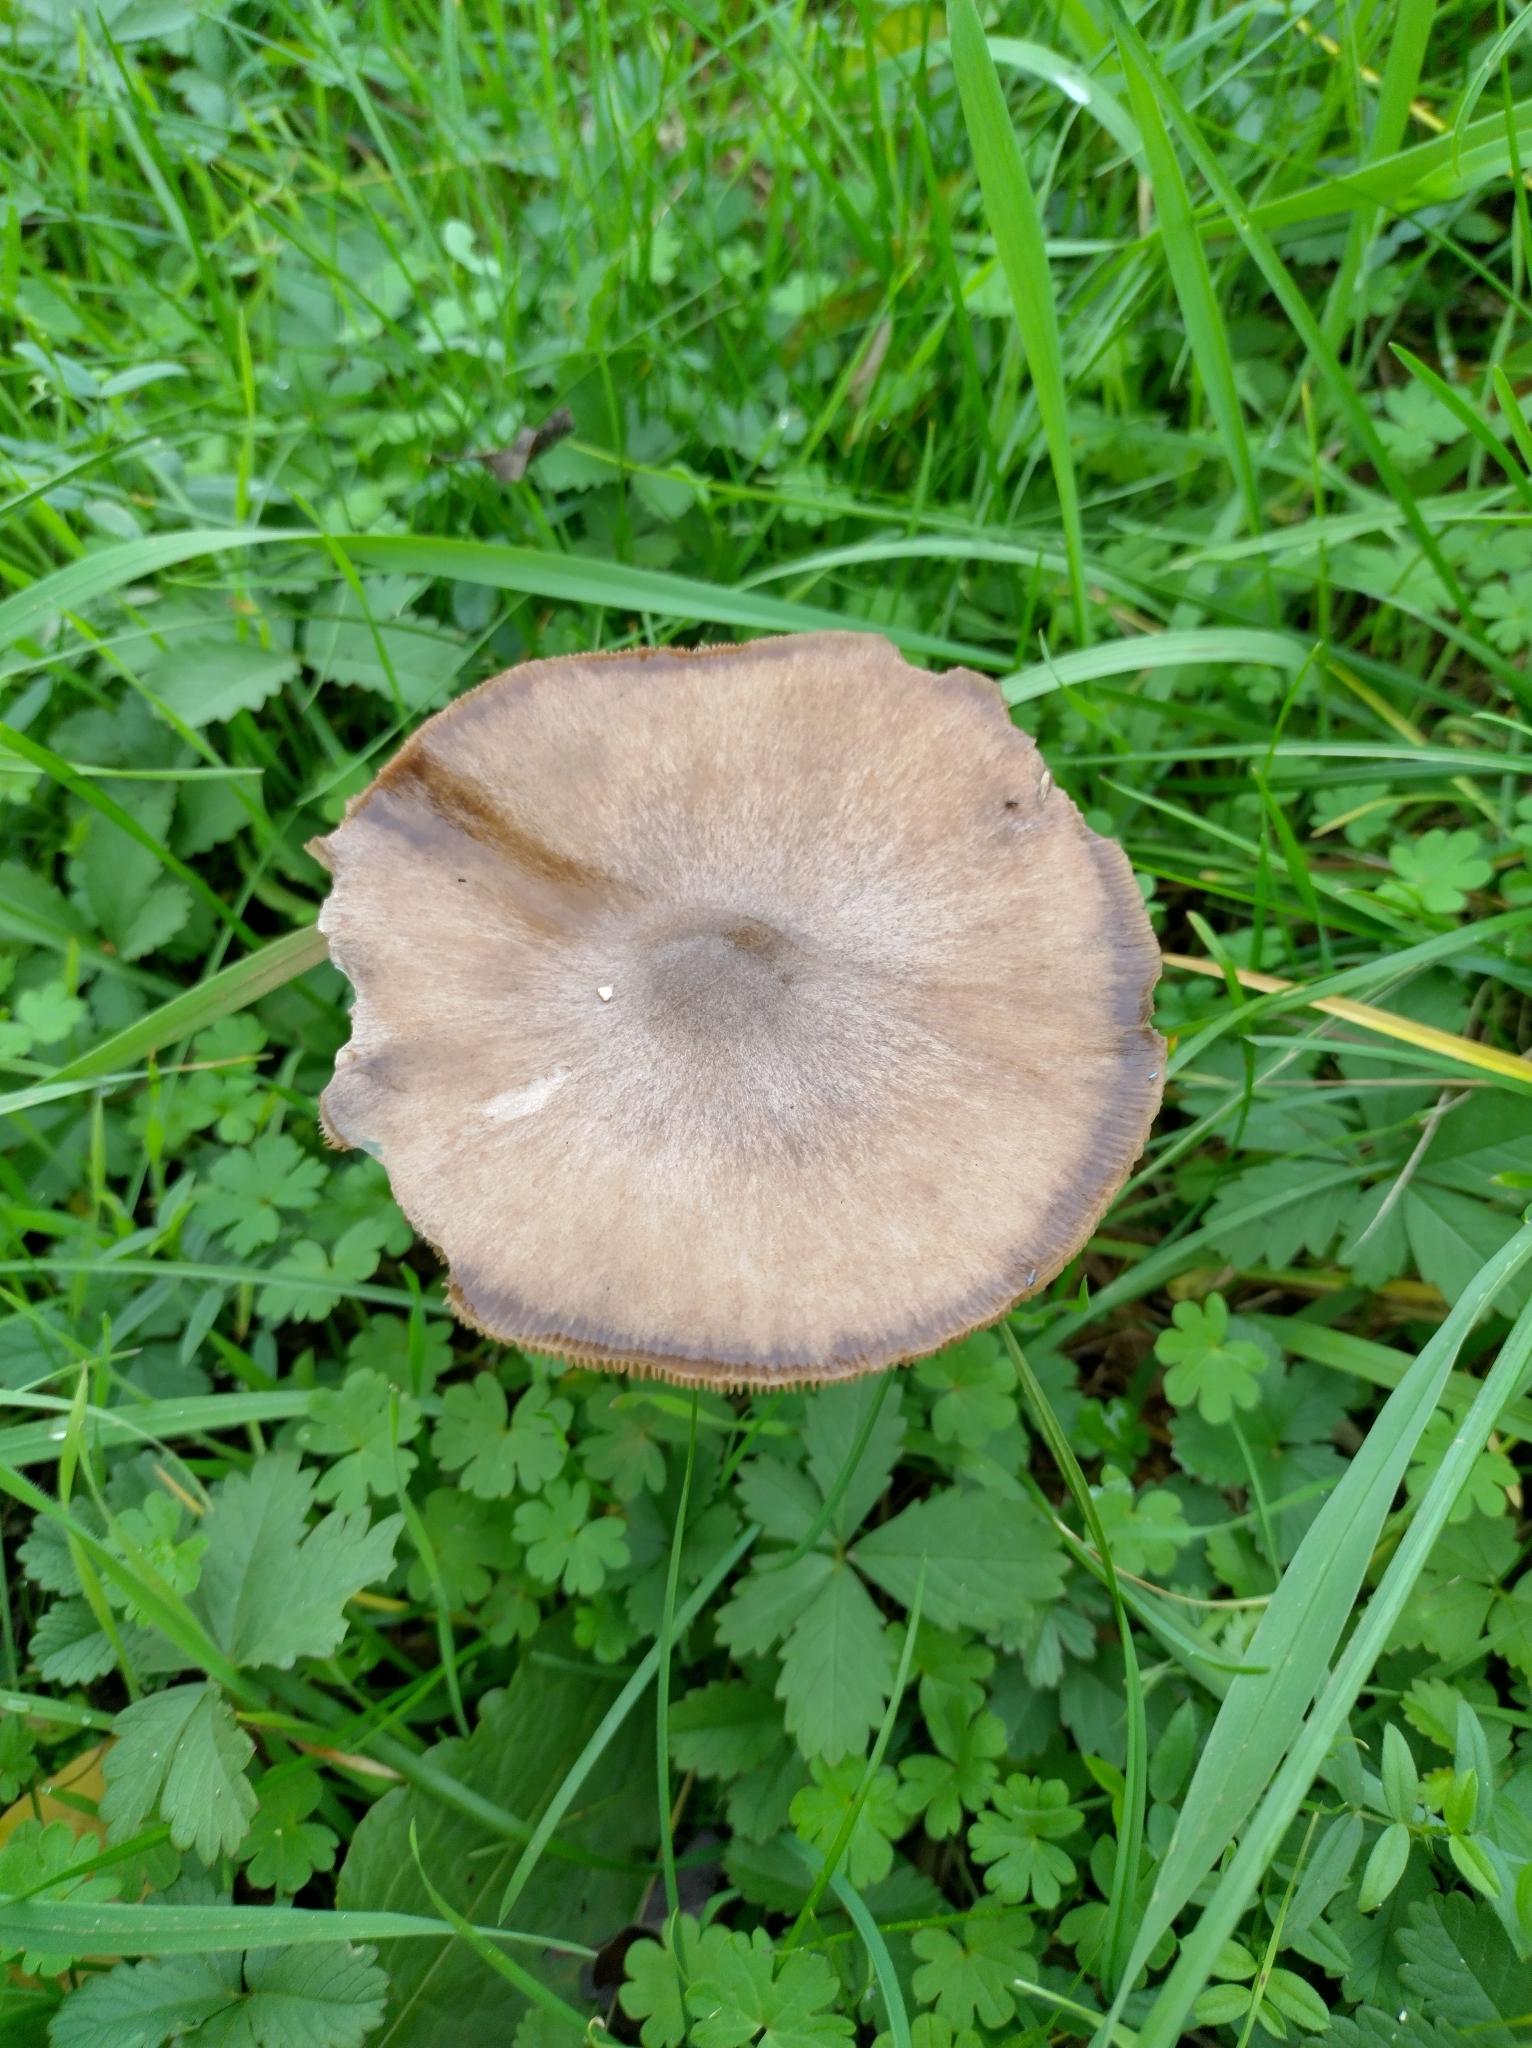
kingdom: Fungi
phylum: Basidiomycota
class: Agaricomycetes
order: Agaricales
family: Pluteaceae
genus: Volvopluteus
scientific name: Volvopluteus gloiocephalus
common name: Stubble rosegill
